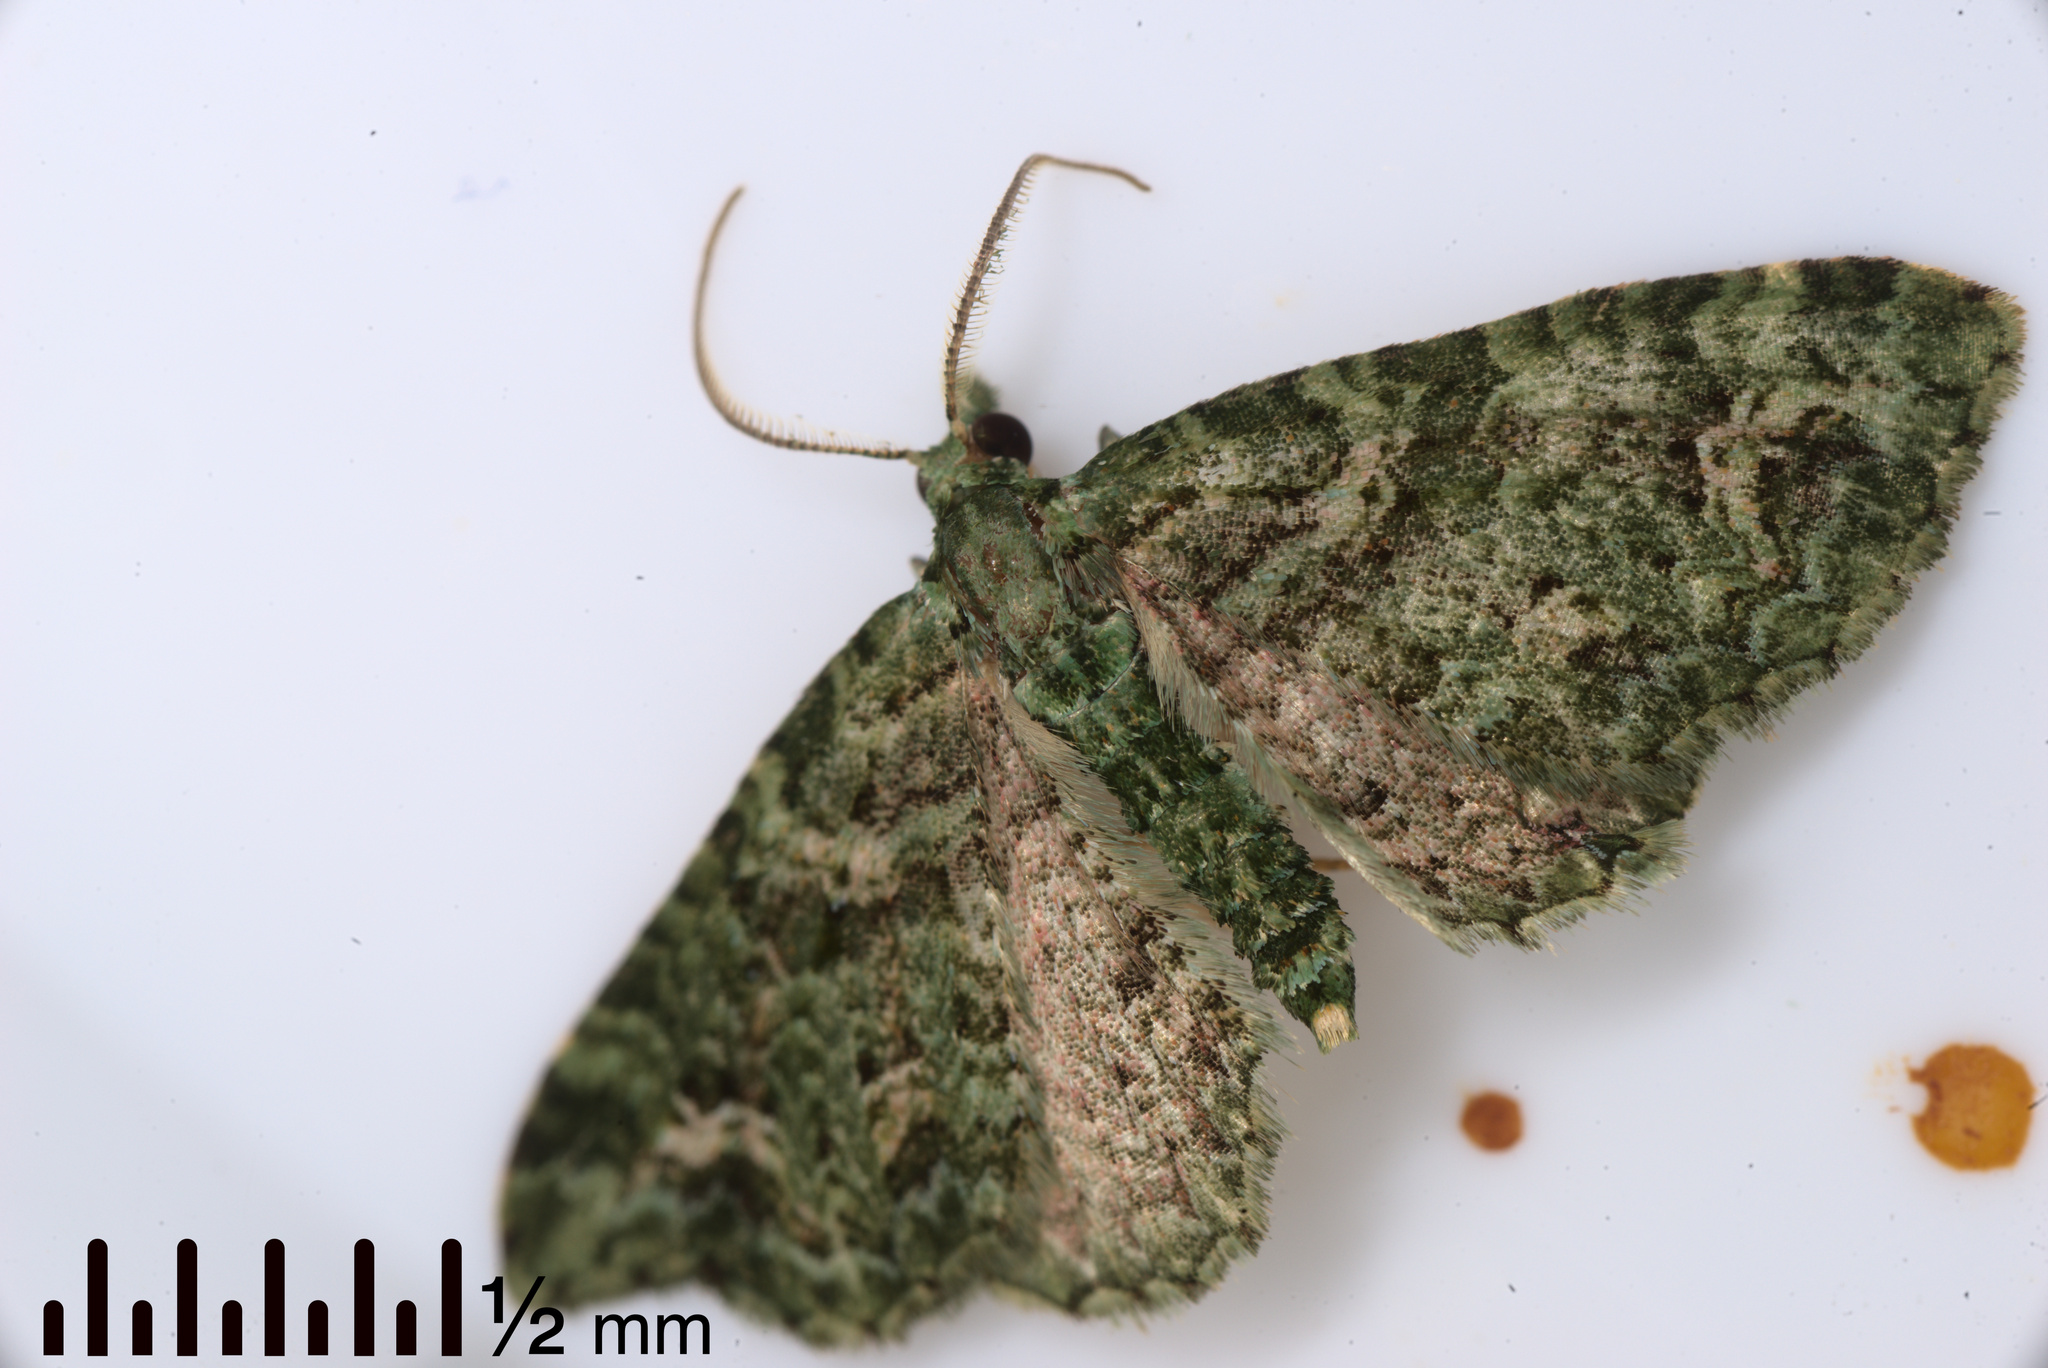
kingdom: Animalia
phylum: Arthropoda
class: Insecta
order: Lepidoptera
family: Geometridae
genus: Pasiphila
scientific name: Pasiphila muscosata
